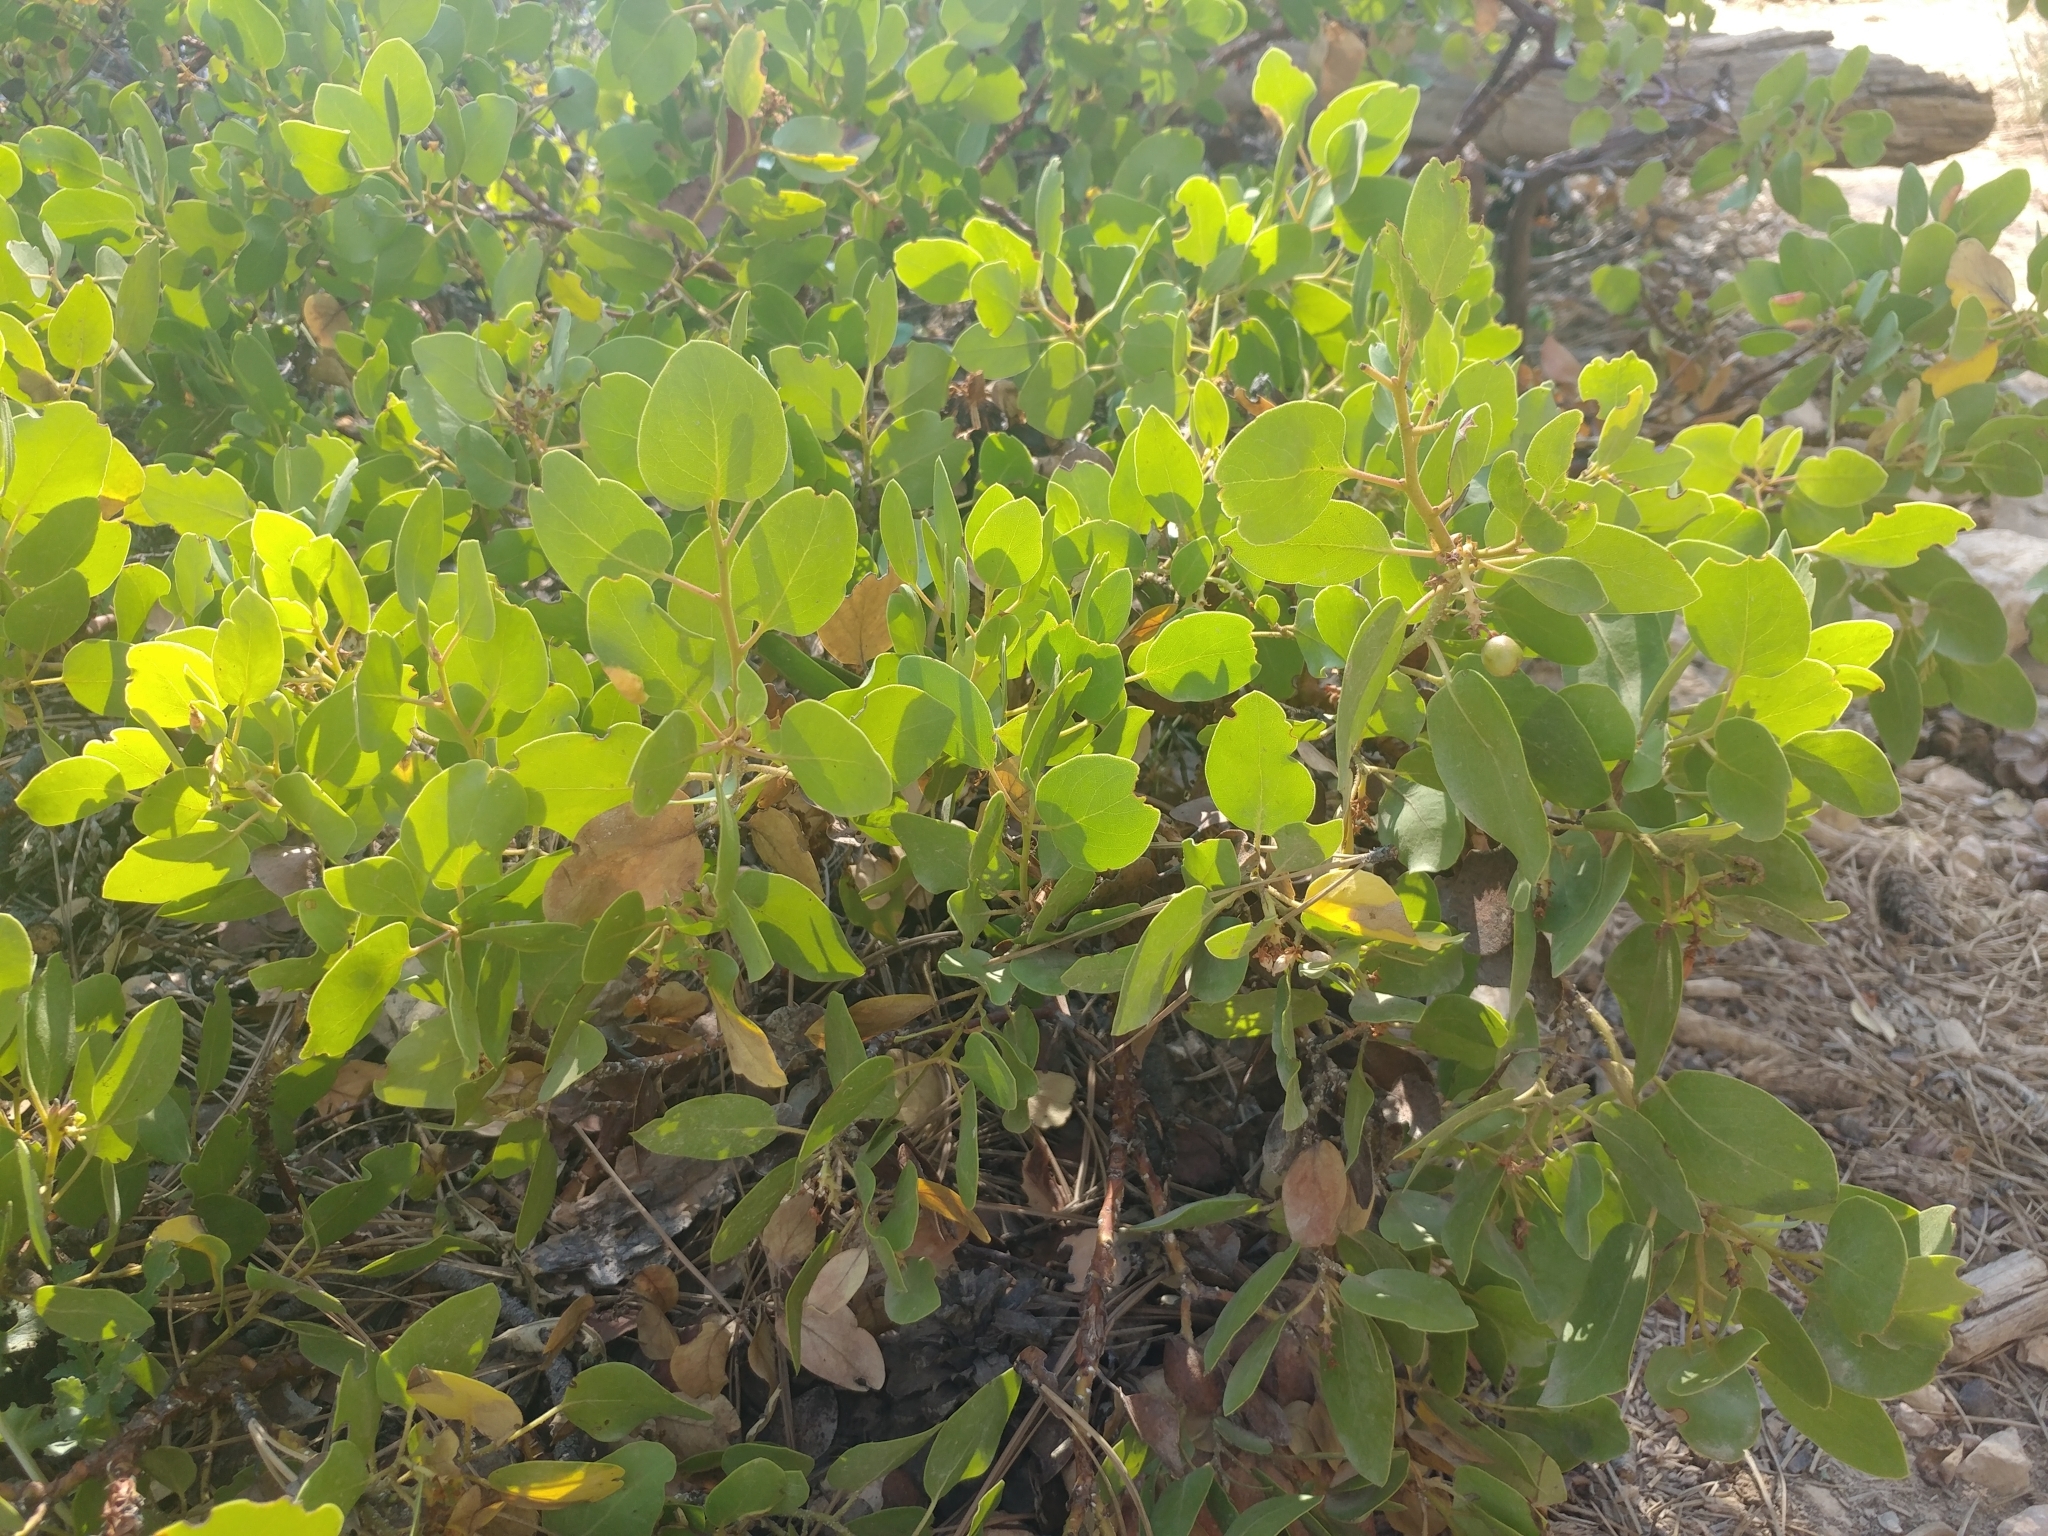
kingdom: Plantae
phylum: Tracheophyta
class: Magnoliopsida
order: Ericales
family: Ericaceae
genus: Arctostaphylos
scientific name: Arctostaphylos patula
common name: Green-leaf manzanita
